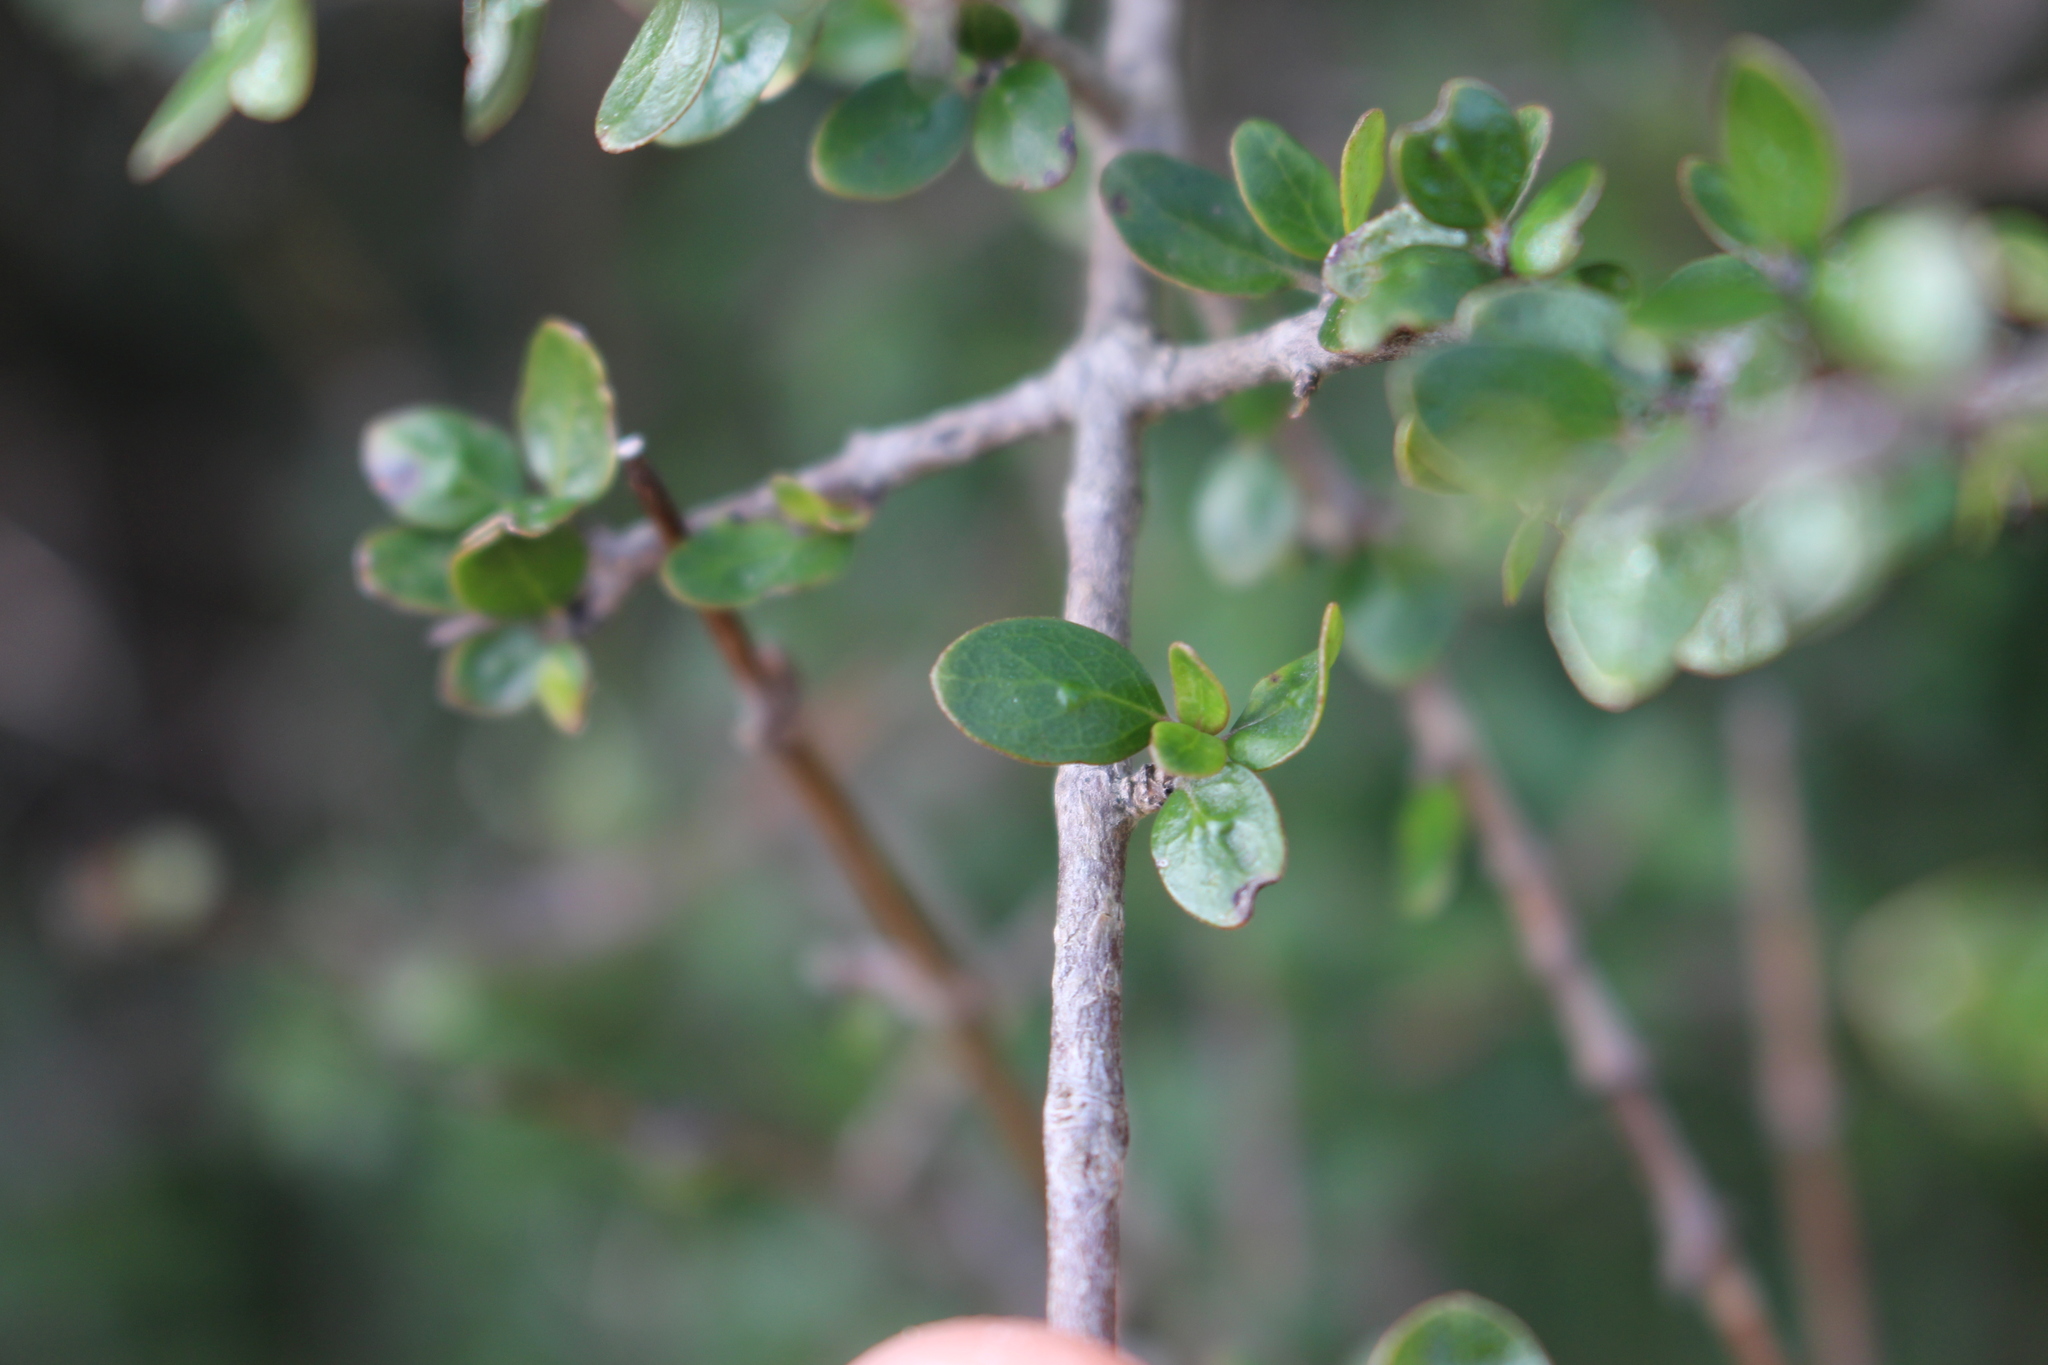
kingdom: Plantae
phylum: Tracheophyta
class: Magnoliopsida
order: Gentianales
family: Rubiaceae
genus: Coprosma
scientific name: Coprosma wallii
